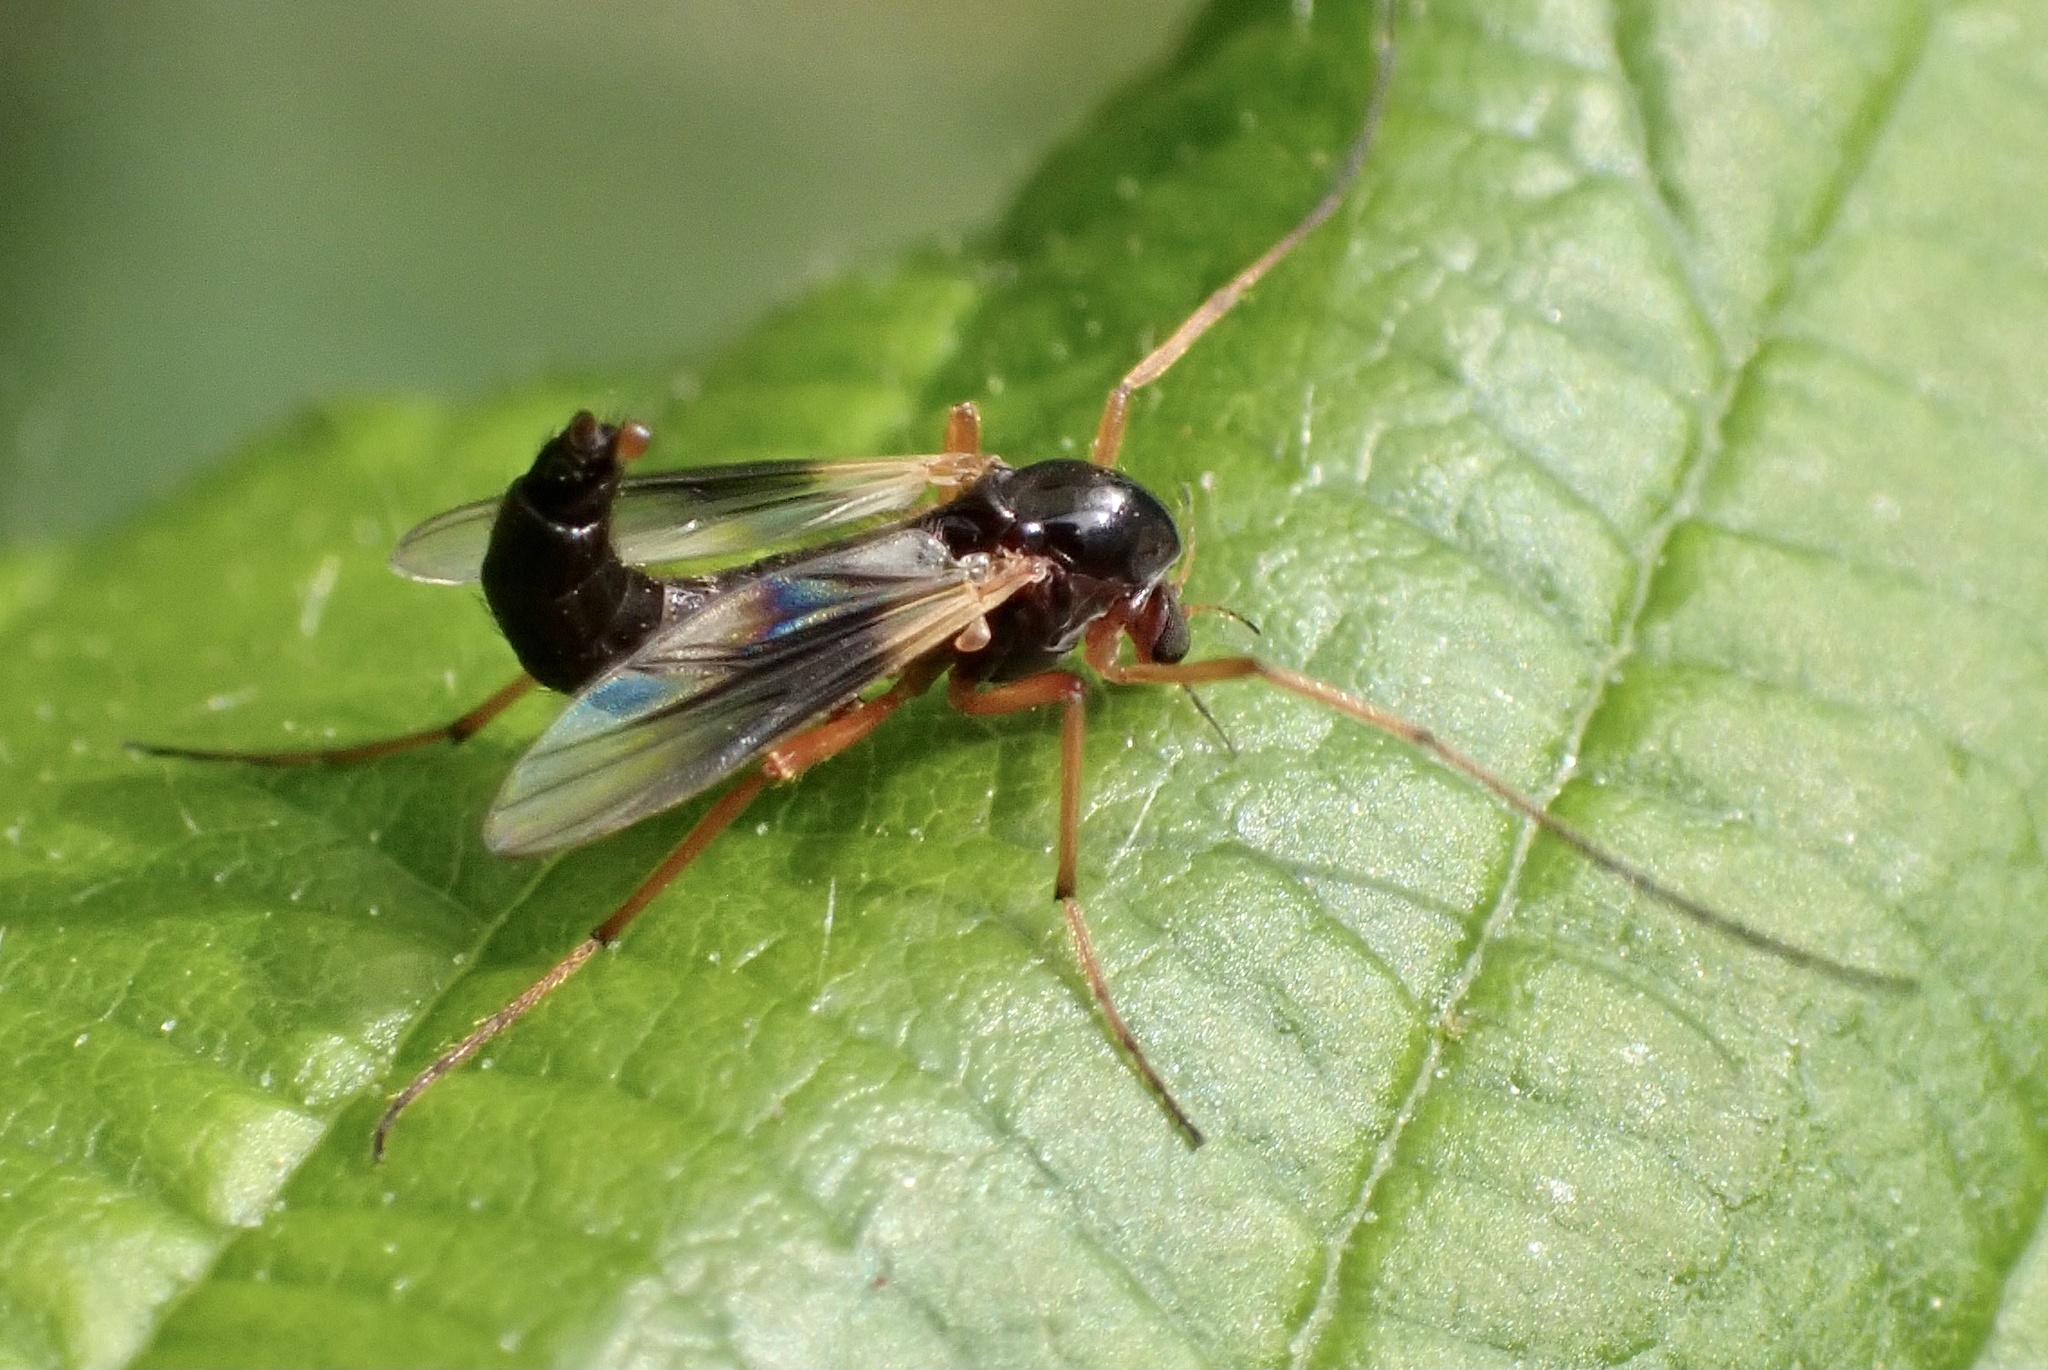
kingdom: Animalia
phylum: Arthropoda
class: Insecta
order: Diptera
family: Chironomidae
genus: Demeijerea
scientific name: Demeijerea rufipes
